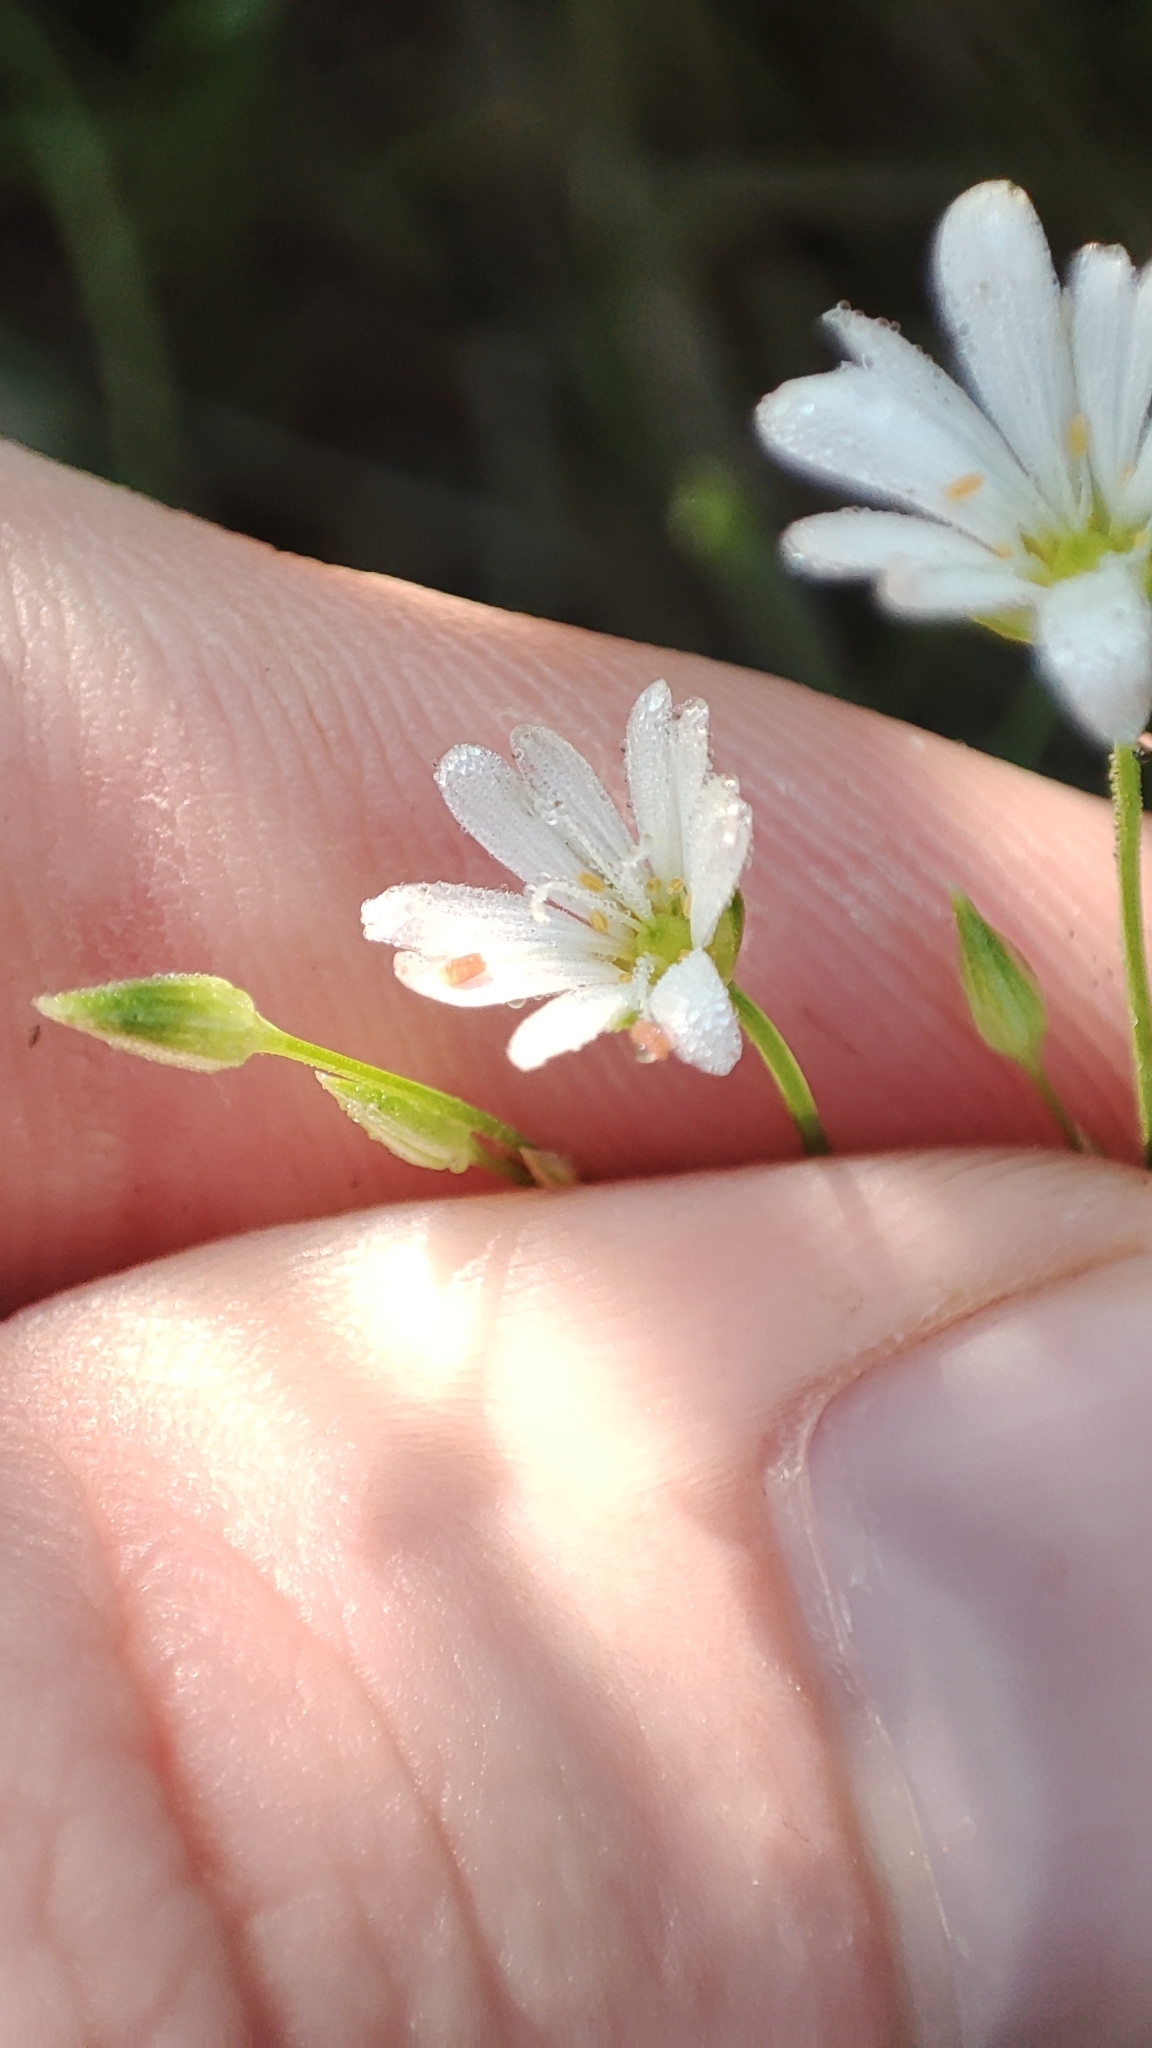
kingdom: Plantae
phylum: Tracheophyta
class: Magnoliopsida
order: Caryophyllales
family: Caryophyllaceae
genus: Stellaria
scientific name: Stellaria longifolia
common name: Long-leaved chickweed
